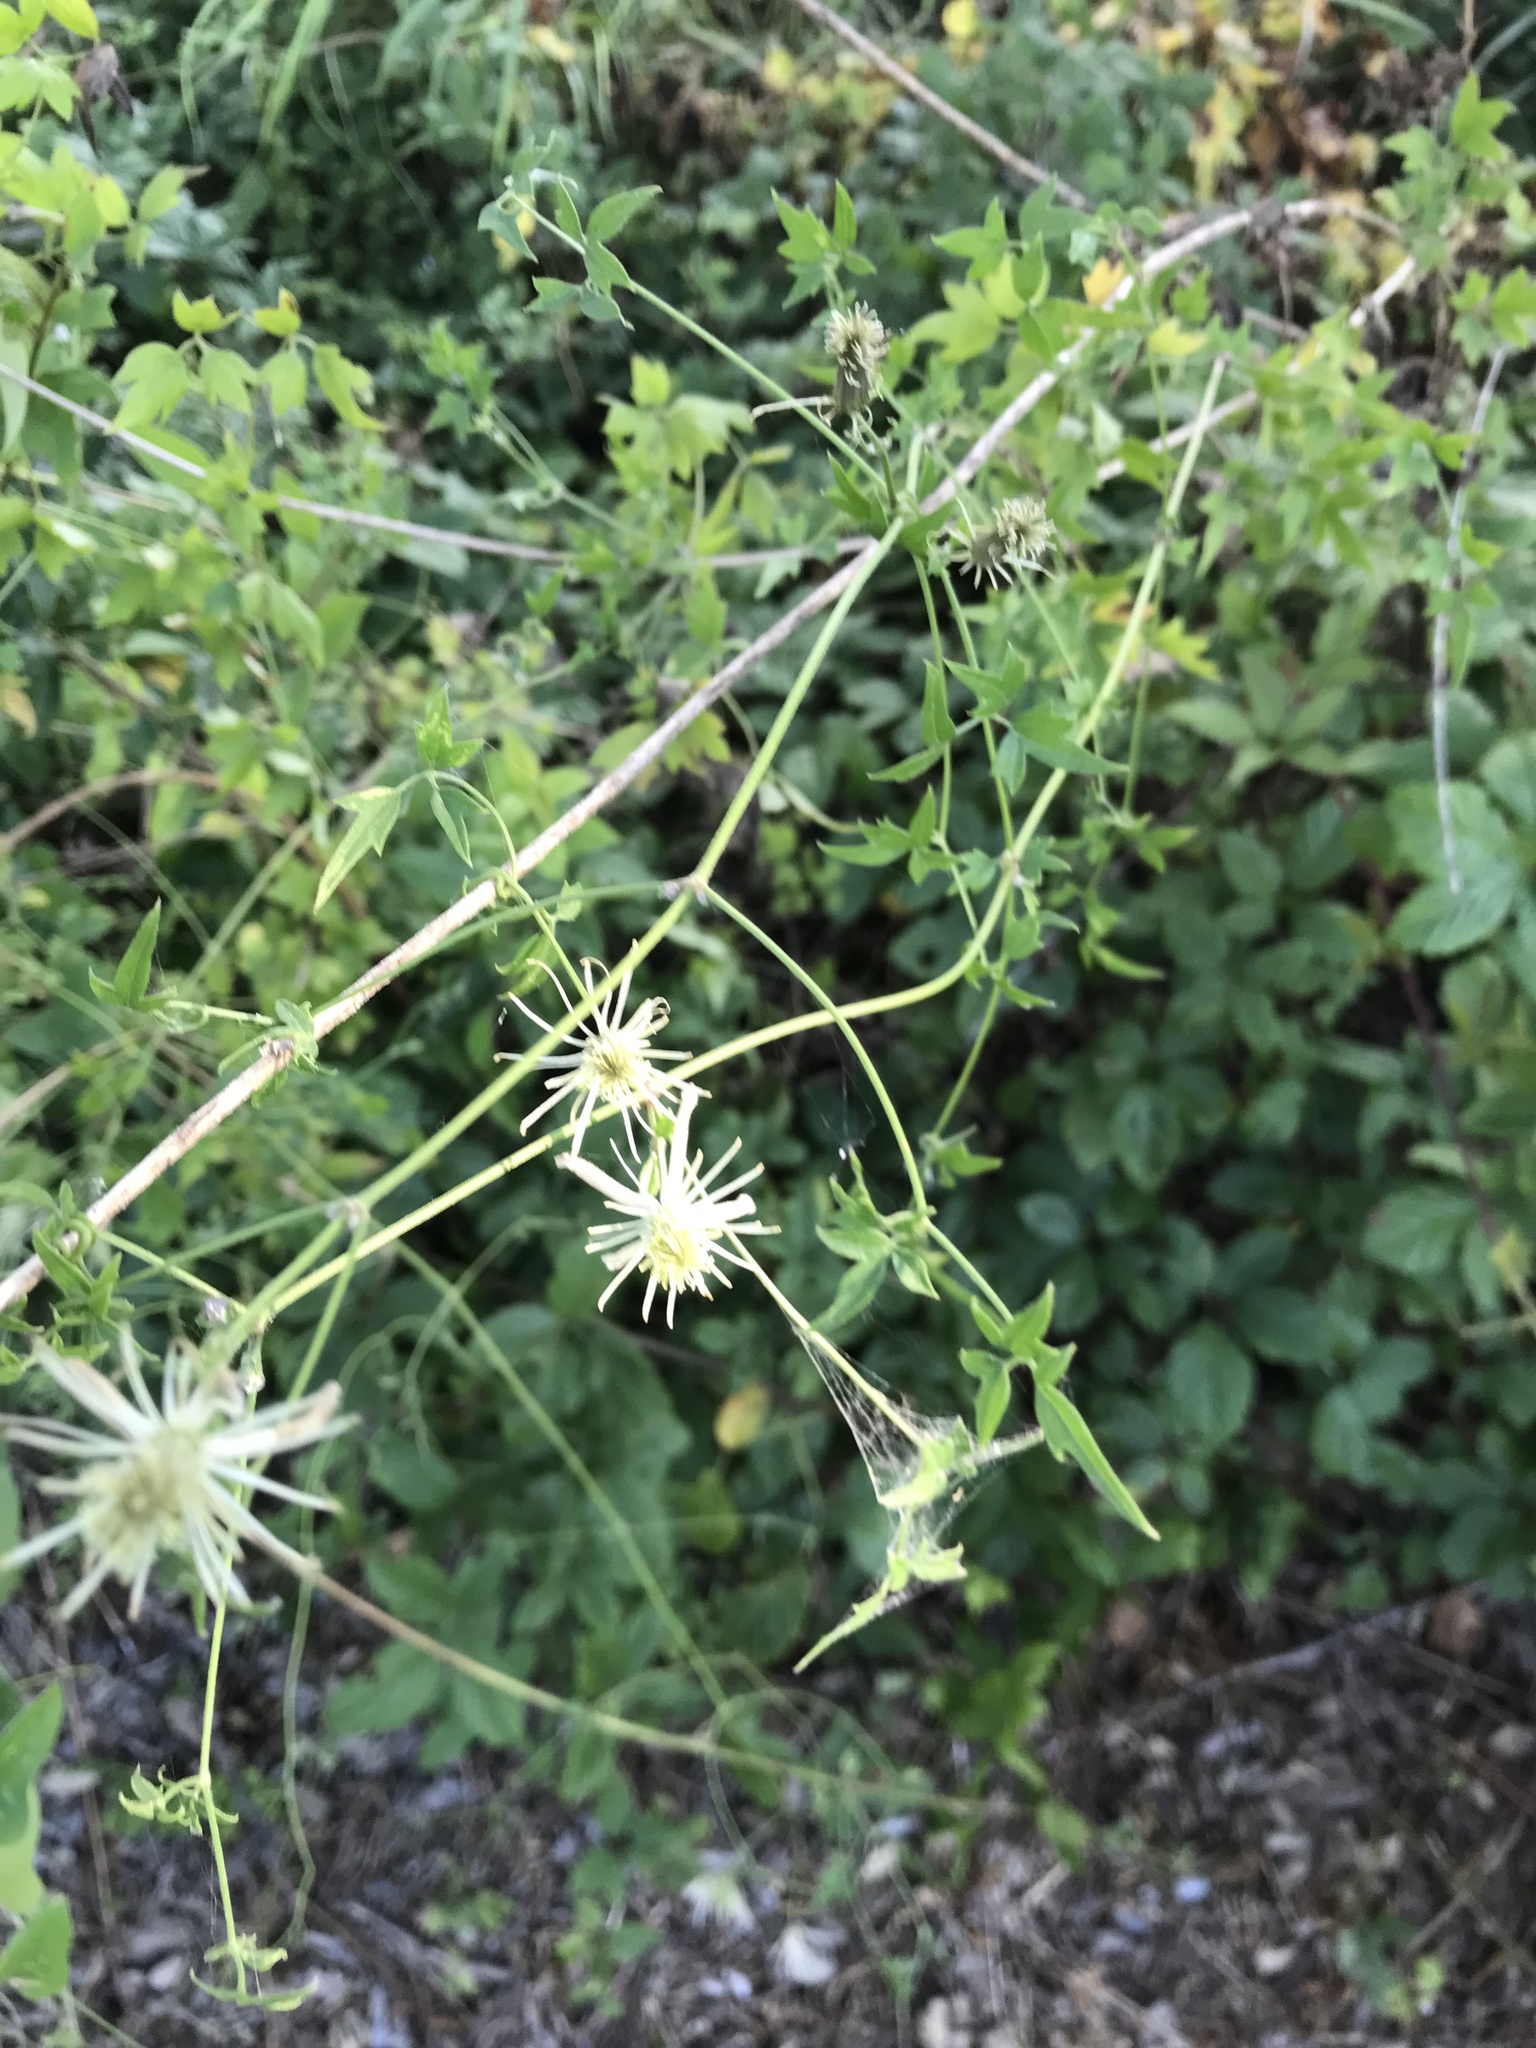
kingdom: Plantae
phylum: Tracheophyta
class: Magnoliopsida
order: Ranunculales
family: Ranunculaceae
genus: Clematis
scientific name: Clematis drummondii
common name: Texas virgin's bower
